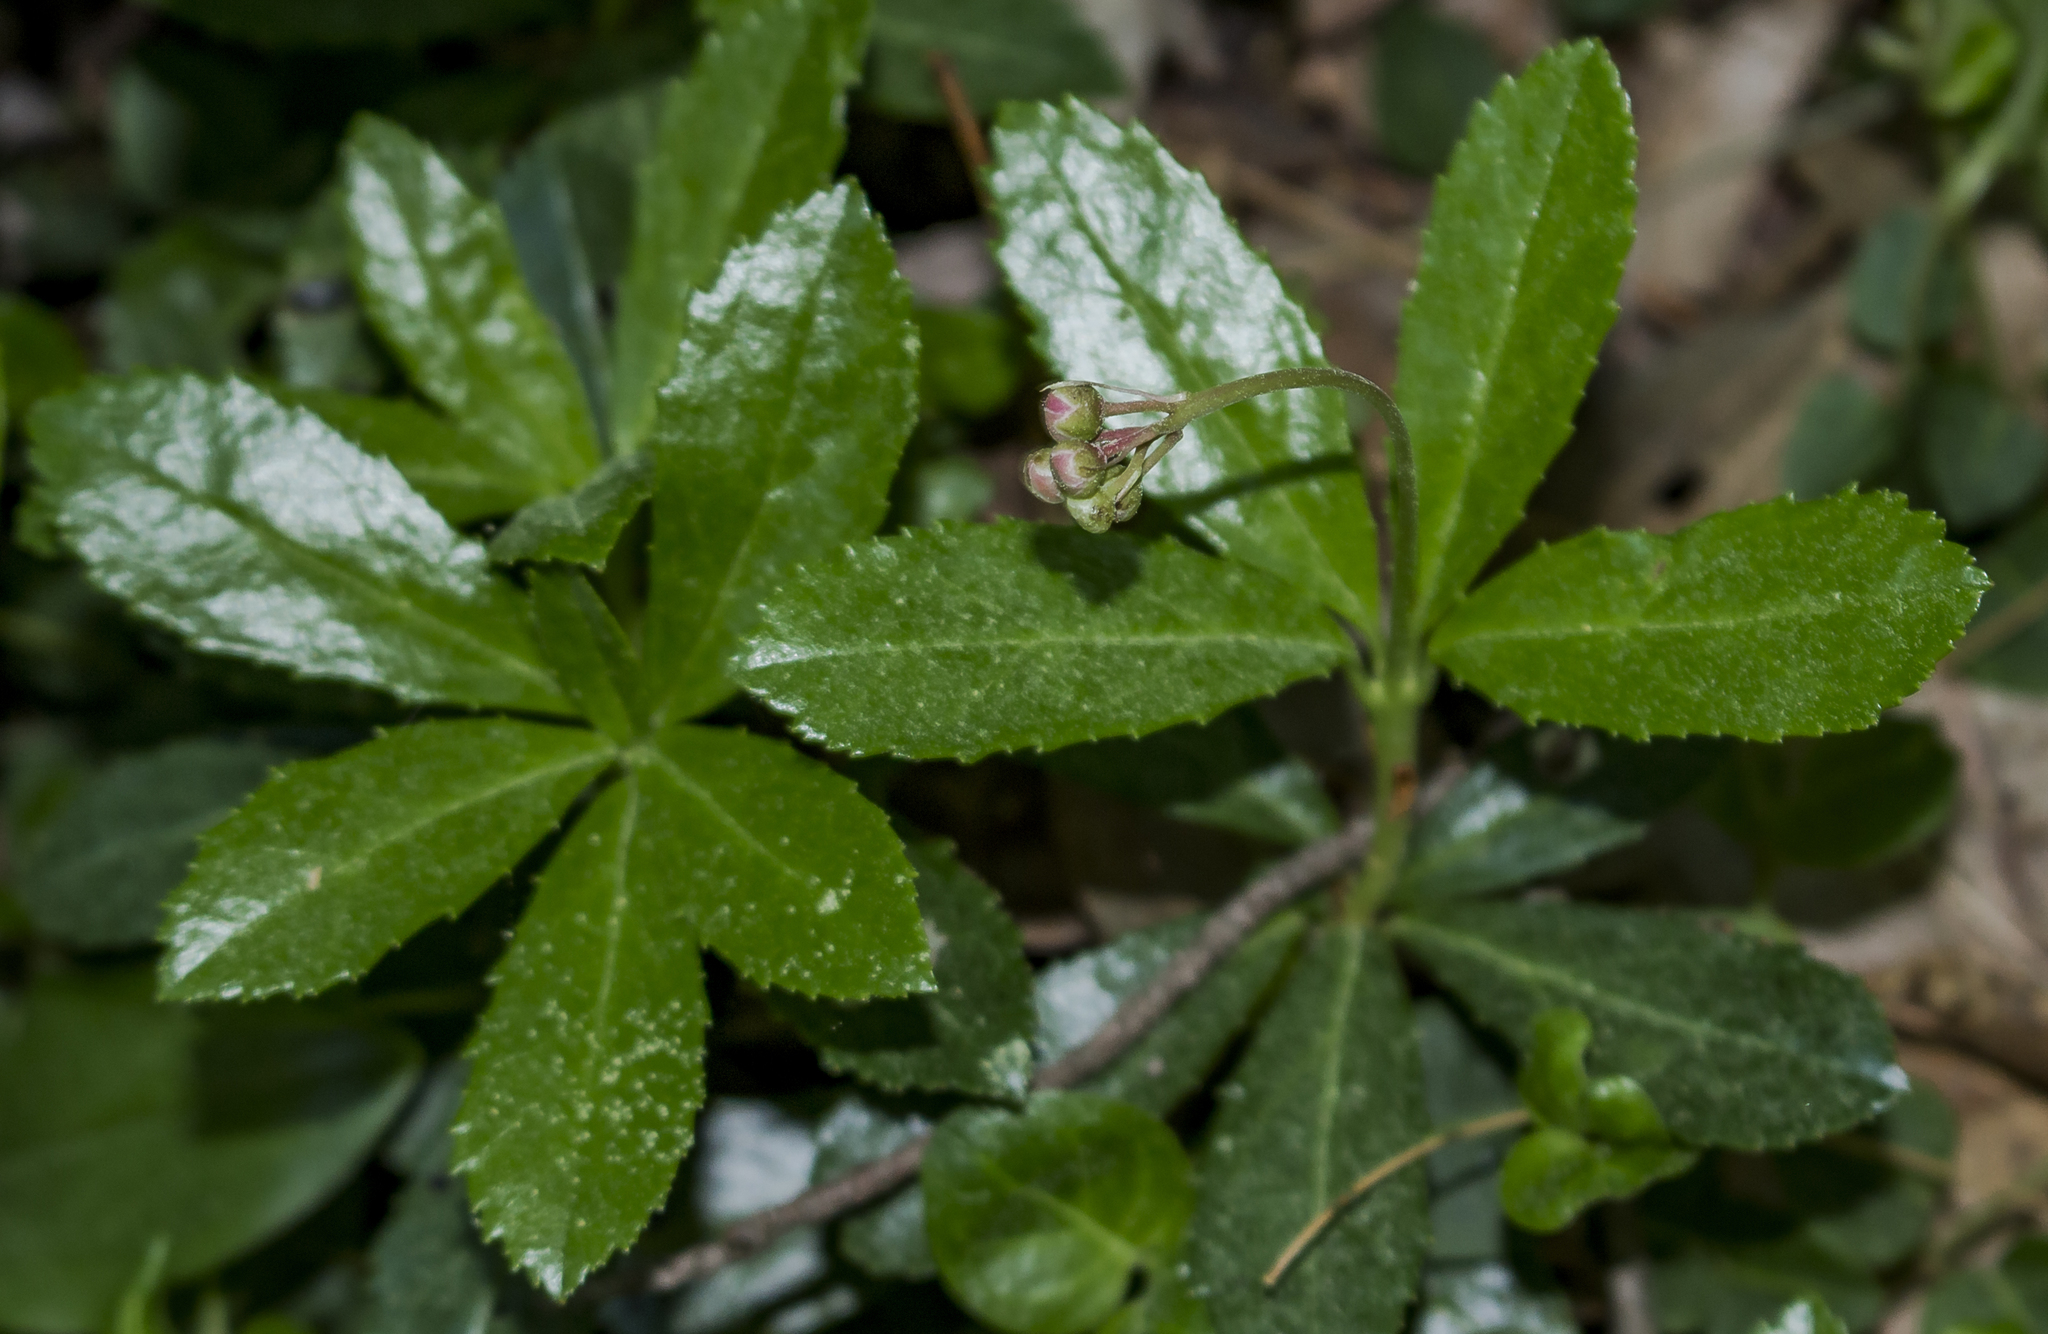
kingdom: Plantae
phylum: Tracheophyta
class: Magnoliopsida
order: Ericales
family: Ericaceae
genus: Chimaphila
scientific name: Chimaphila umbellata
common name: Pipsissewa
